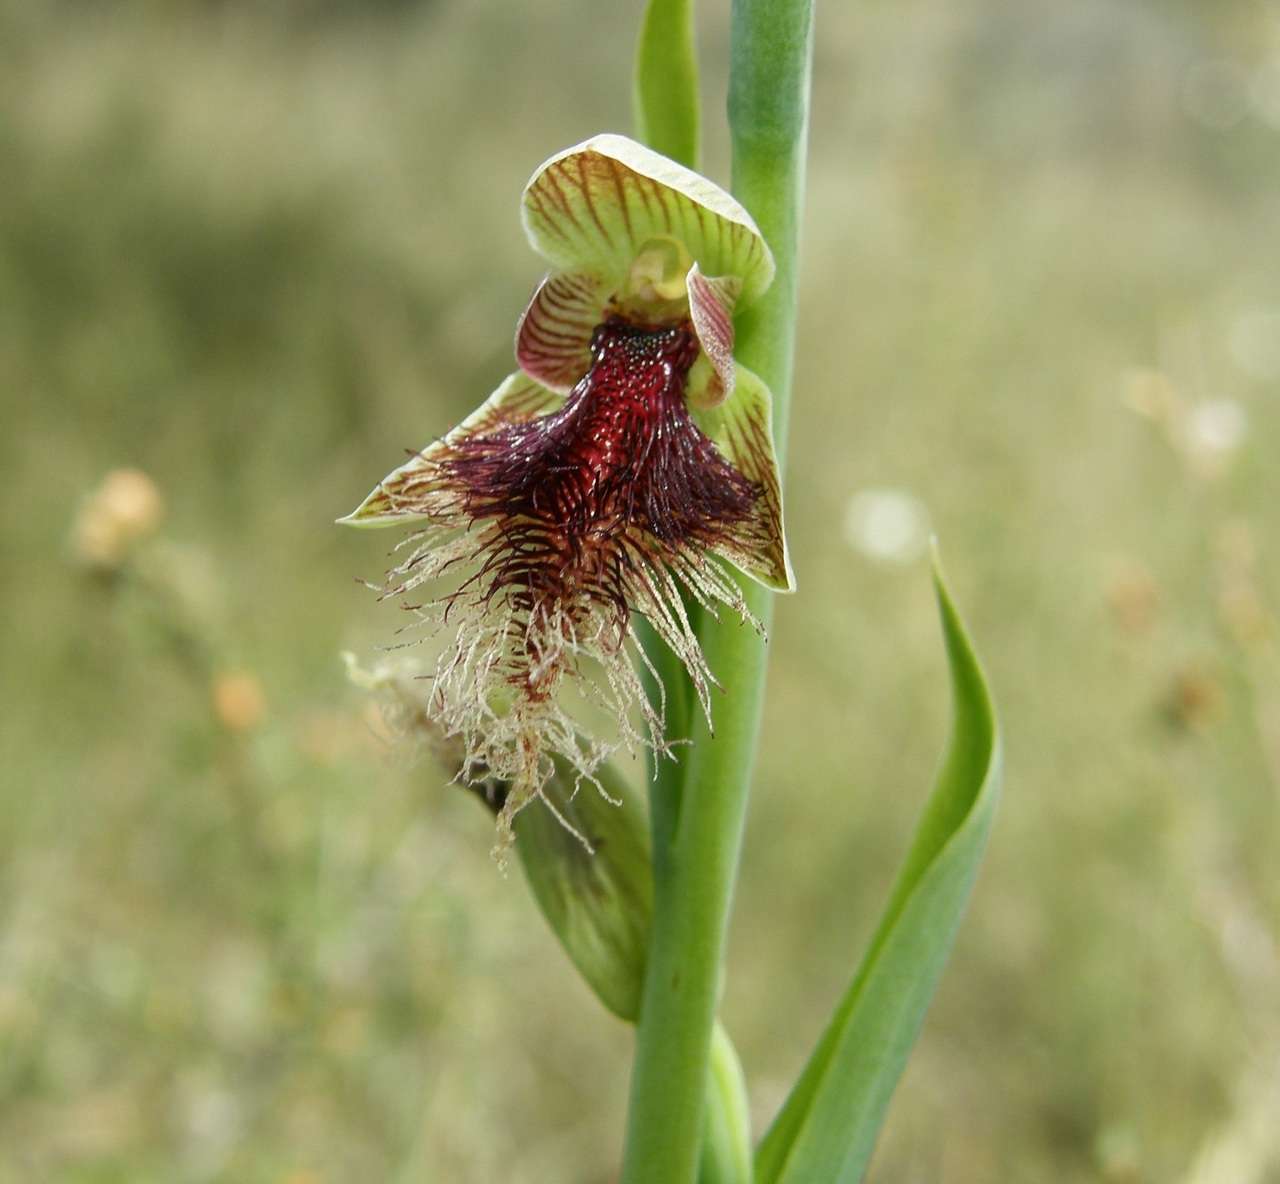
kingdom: Plantae
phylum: Tracheophyta
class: Liliopsida
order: Asparagales
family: Orchidaceae
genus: Calochilus
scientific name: Calochilus robertsonii
